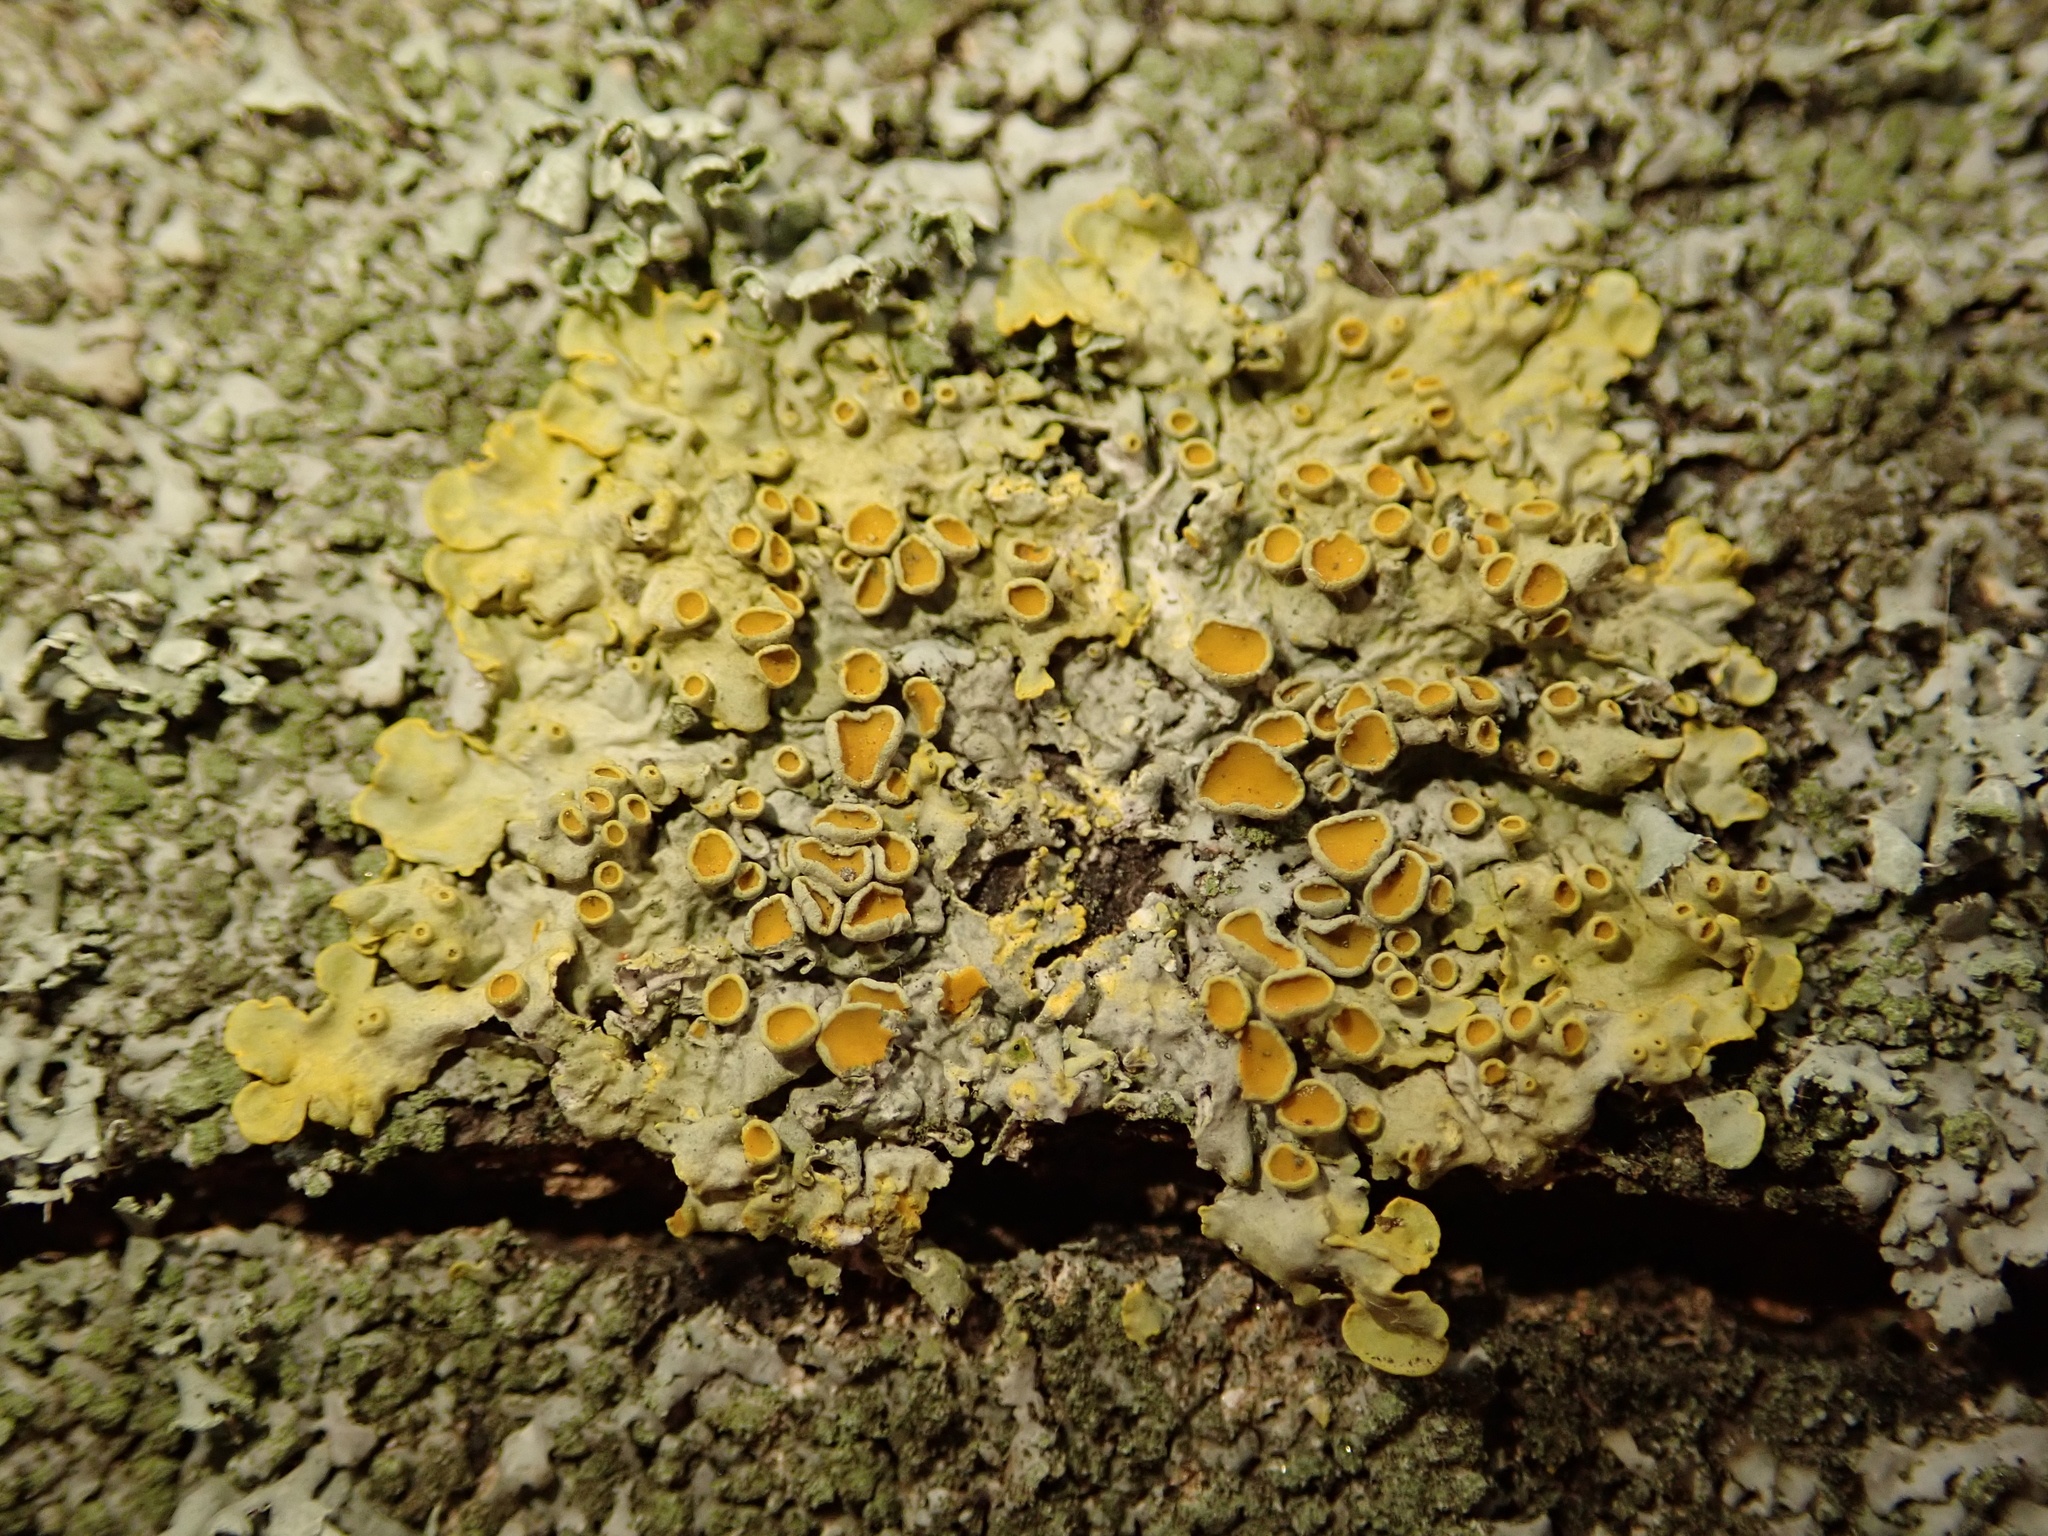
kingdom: Fungi
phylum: Ascomycota
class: Lecanoromycetes
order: Teloschistales
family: Teloschistaceae
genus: Xanthoria
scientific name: Xanthoria parietina
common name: Common orange lichen
